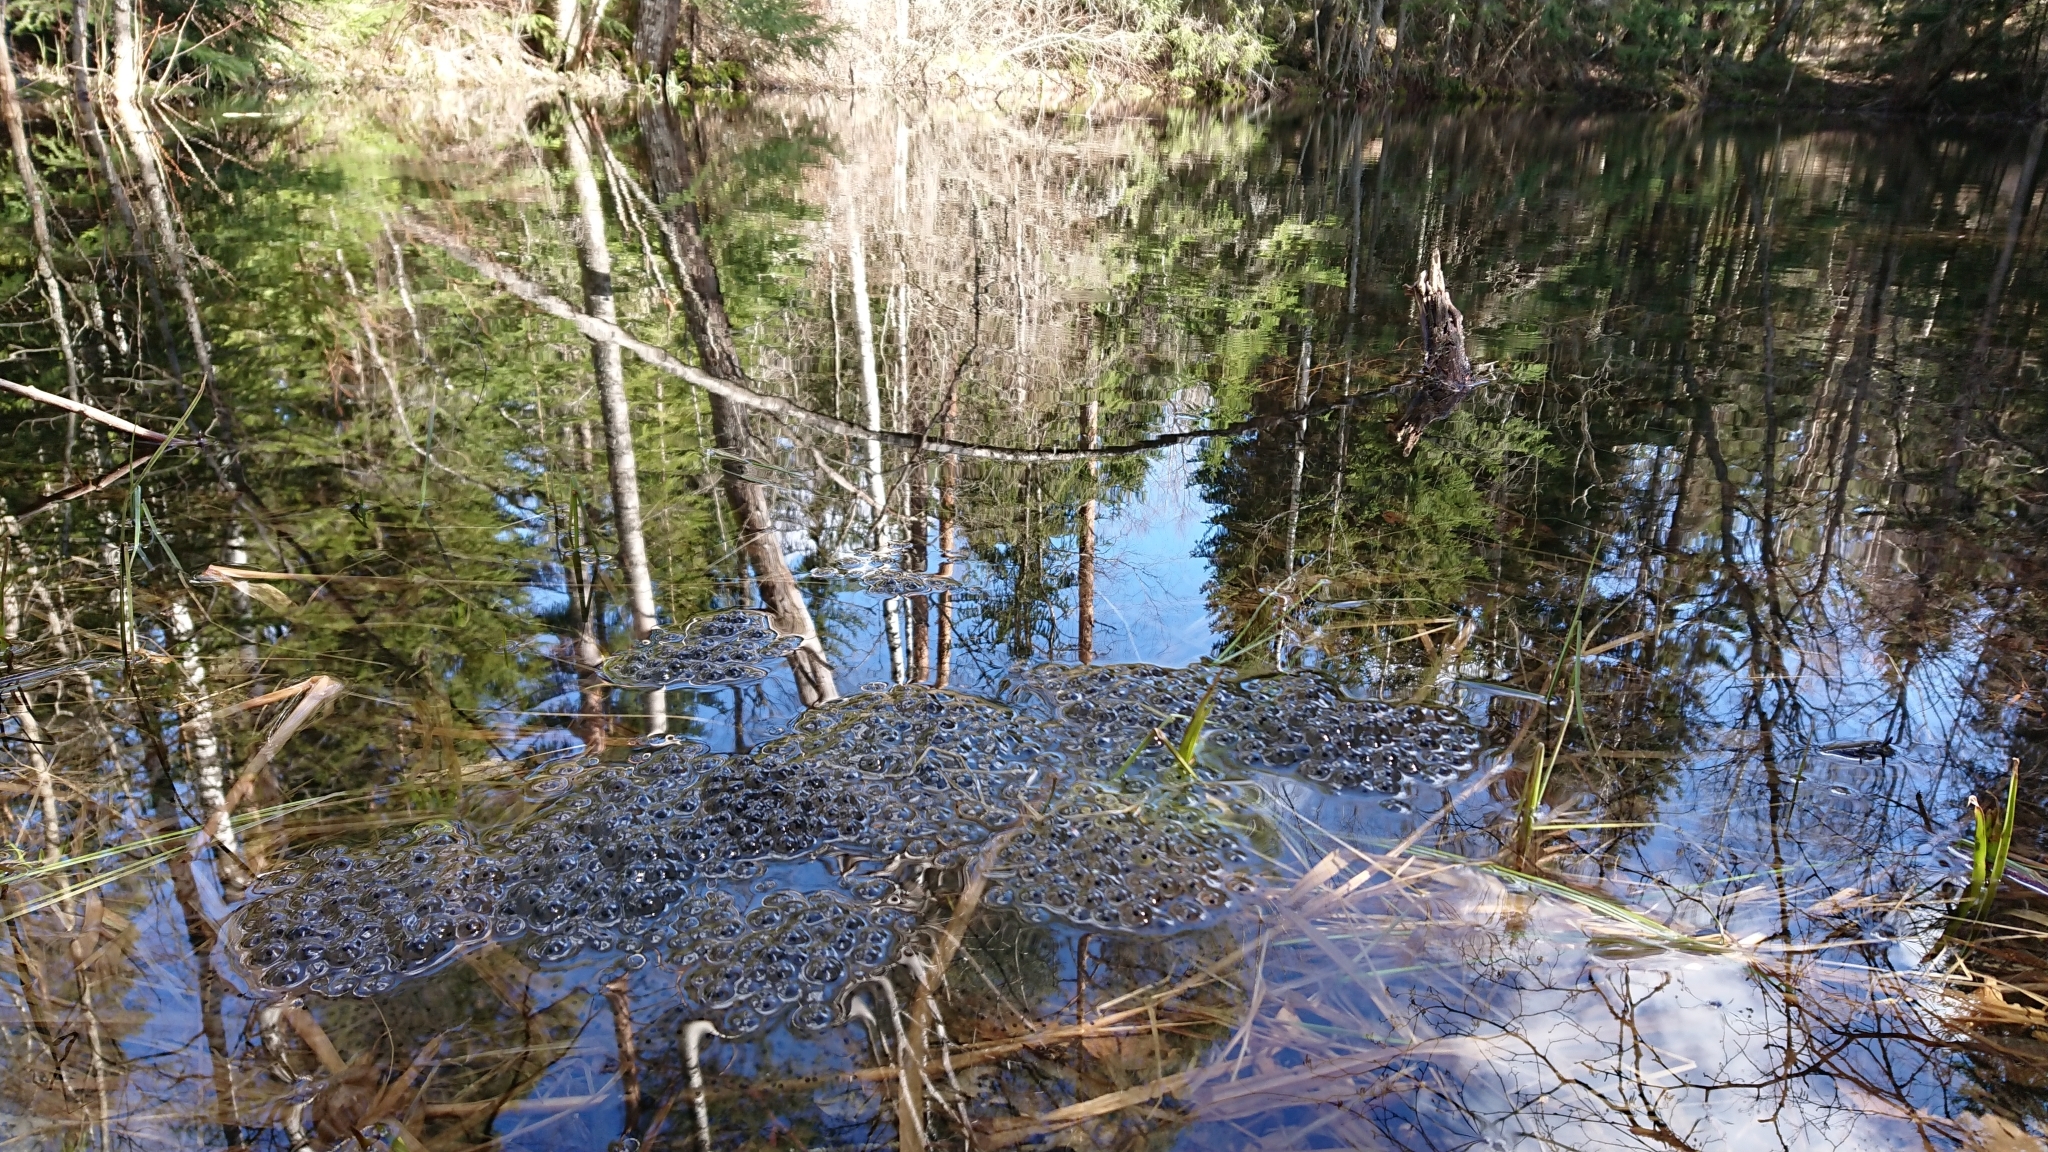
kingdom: Animalia
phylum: Chordata
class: Amphibia
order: Anura
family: Ranidae
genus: Rana
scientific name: Rana temporaria
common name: Common frog
